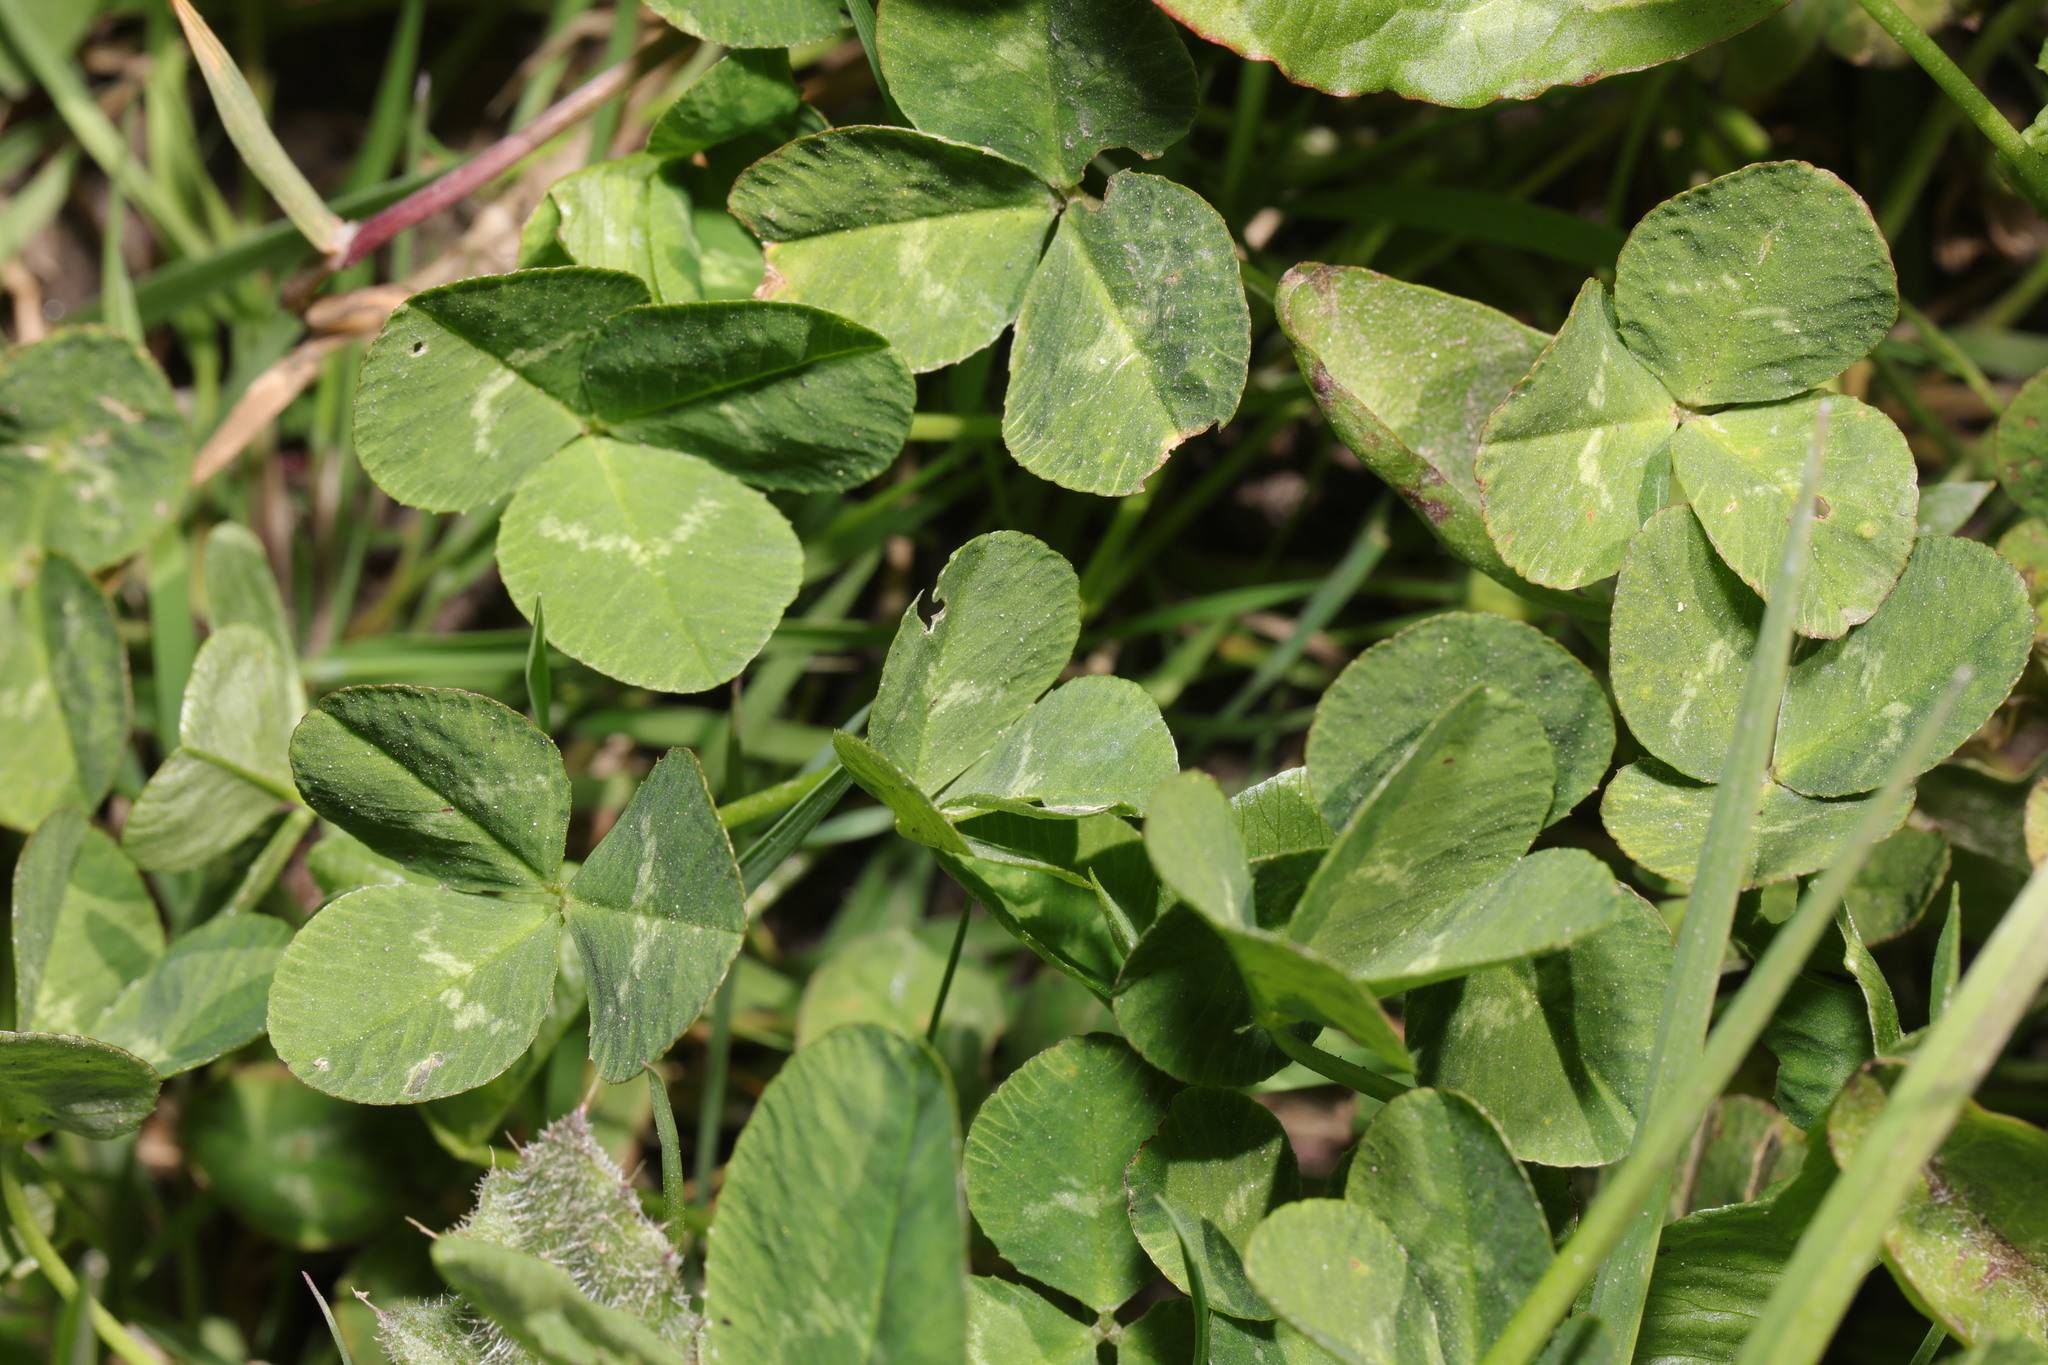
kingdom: Plantae
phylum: Tracheophyta
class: Magnoliopsida
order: Fabales
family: Fabaceae
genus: Trifolium
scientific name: Trifolium repens
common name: White clover
